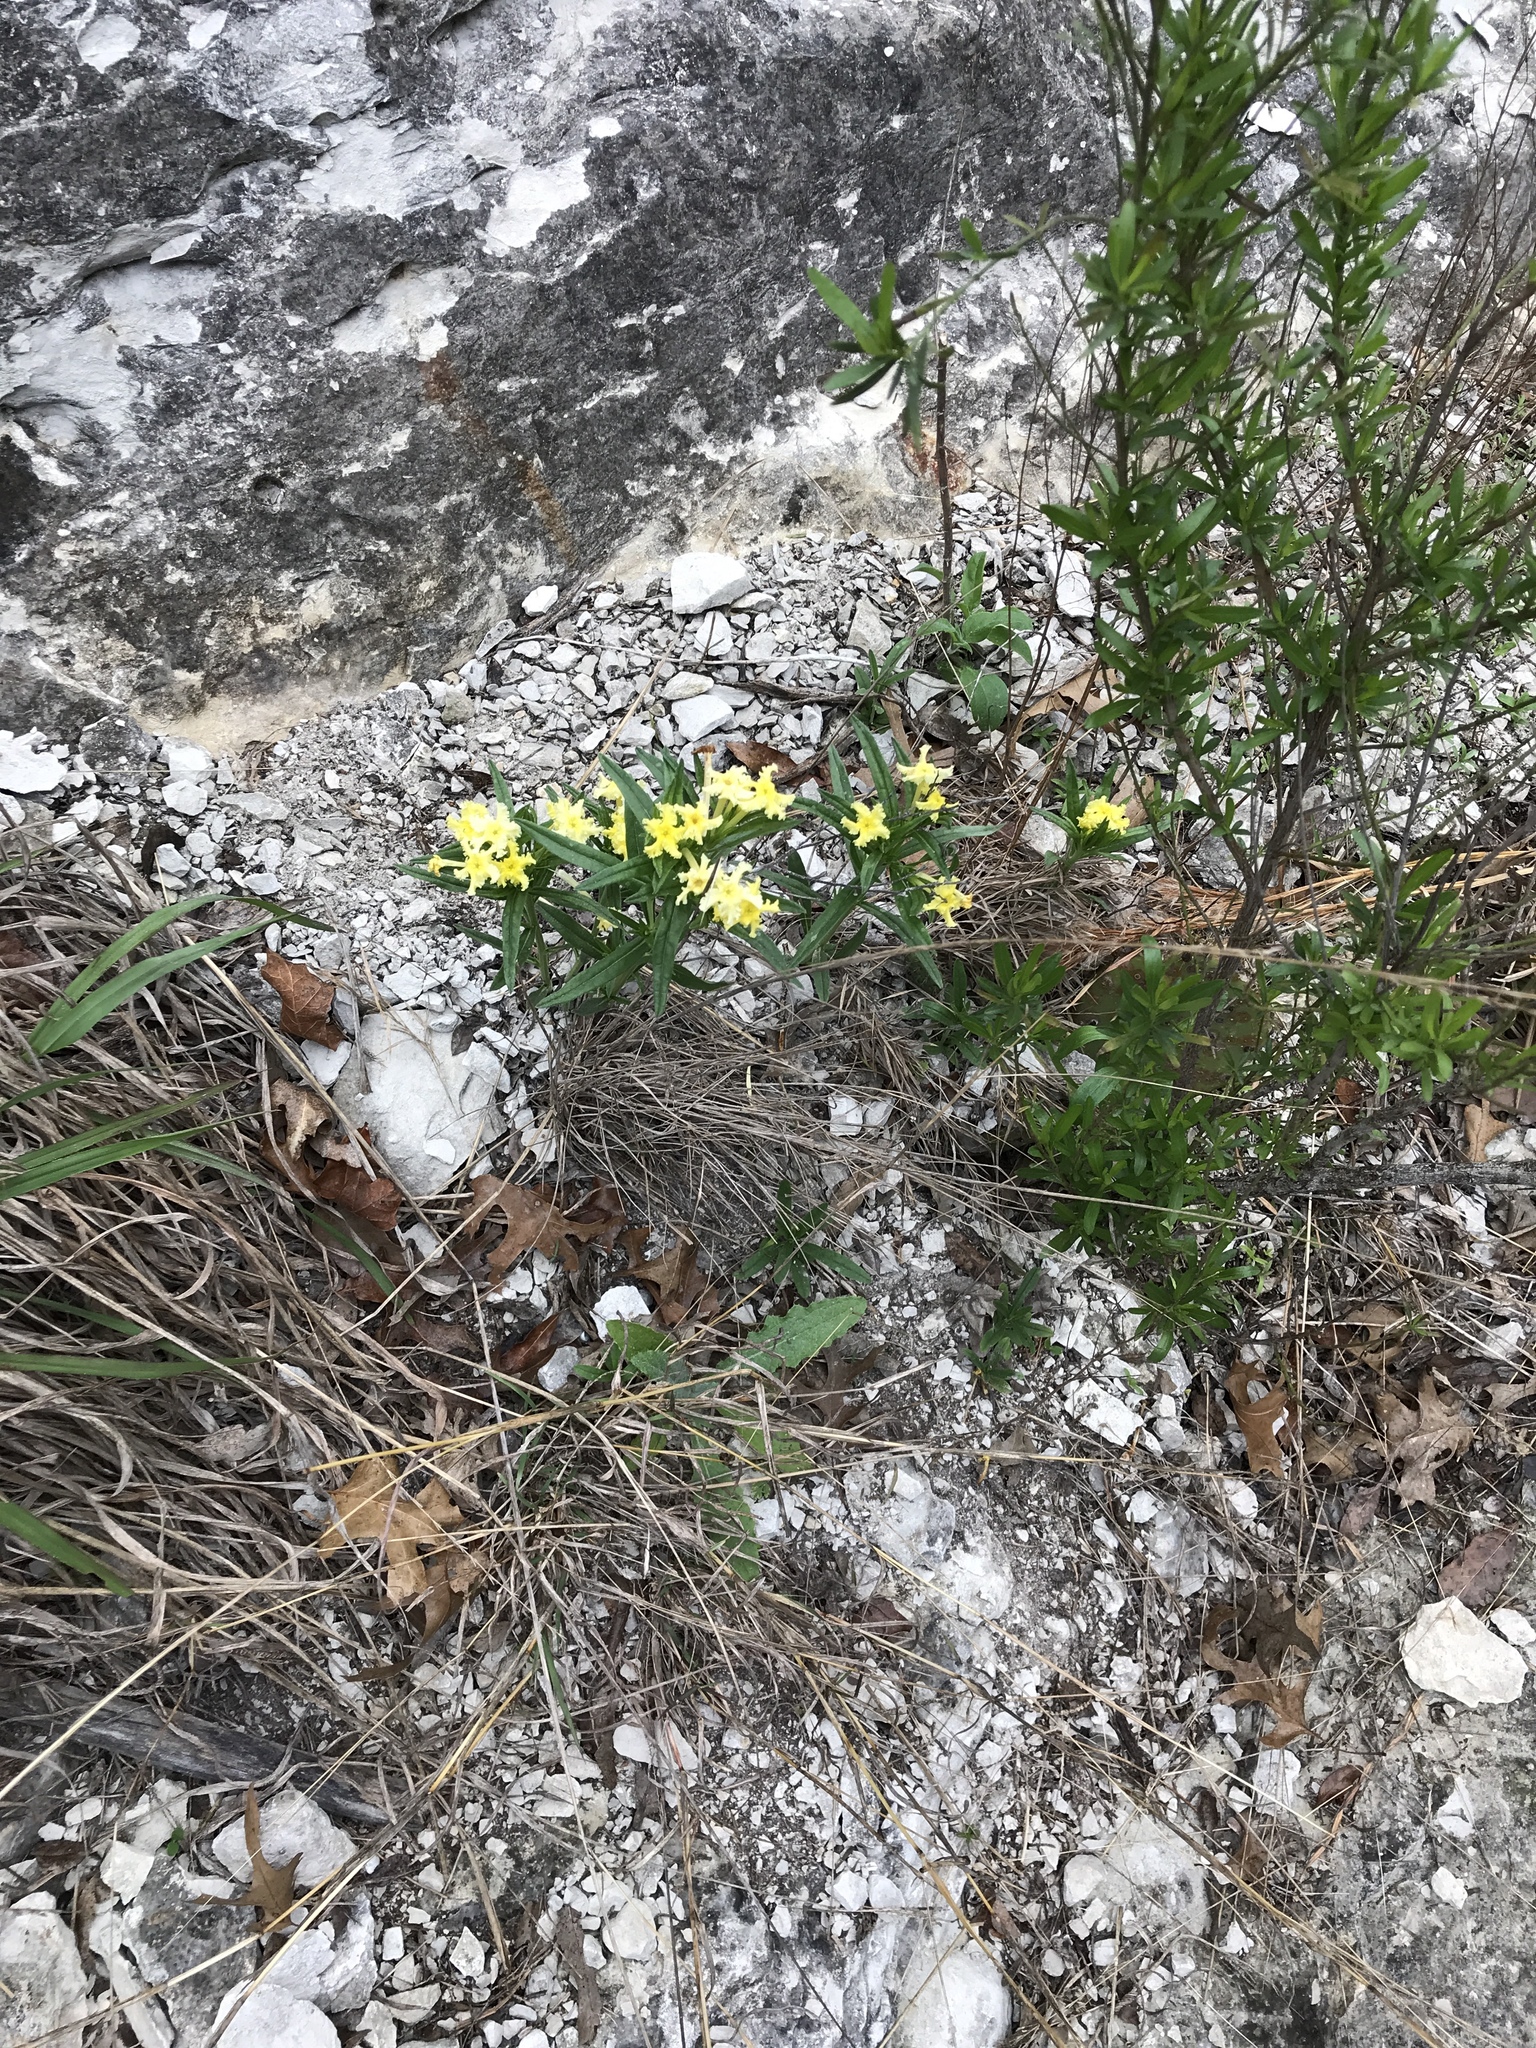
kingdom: Plantae
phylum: Tracheophyta
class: Magnoliopsida
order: Boraginales
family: Boraginaceae
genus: Lithospermum
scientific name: Lithospermum incisum
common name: Fringed gromwell
